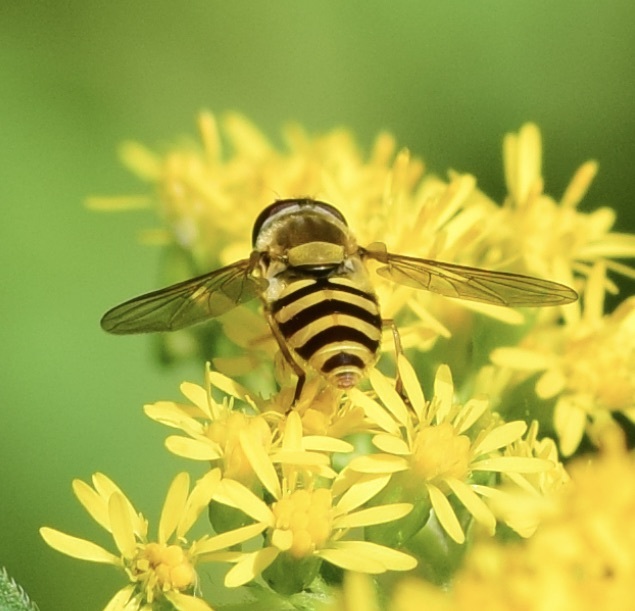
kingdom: Animalia
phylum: Arthropoda
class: Insecta
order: Diptera
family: Syrphidae
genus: Syrphus
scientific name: Syrphus
